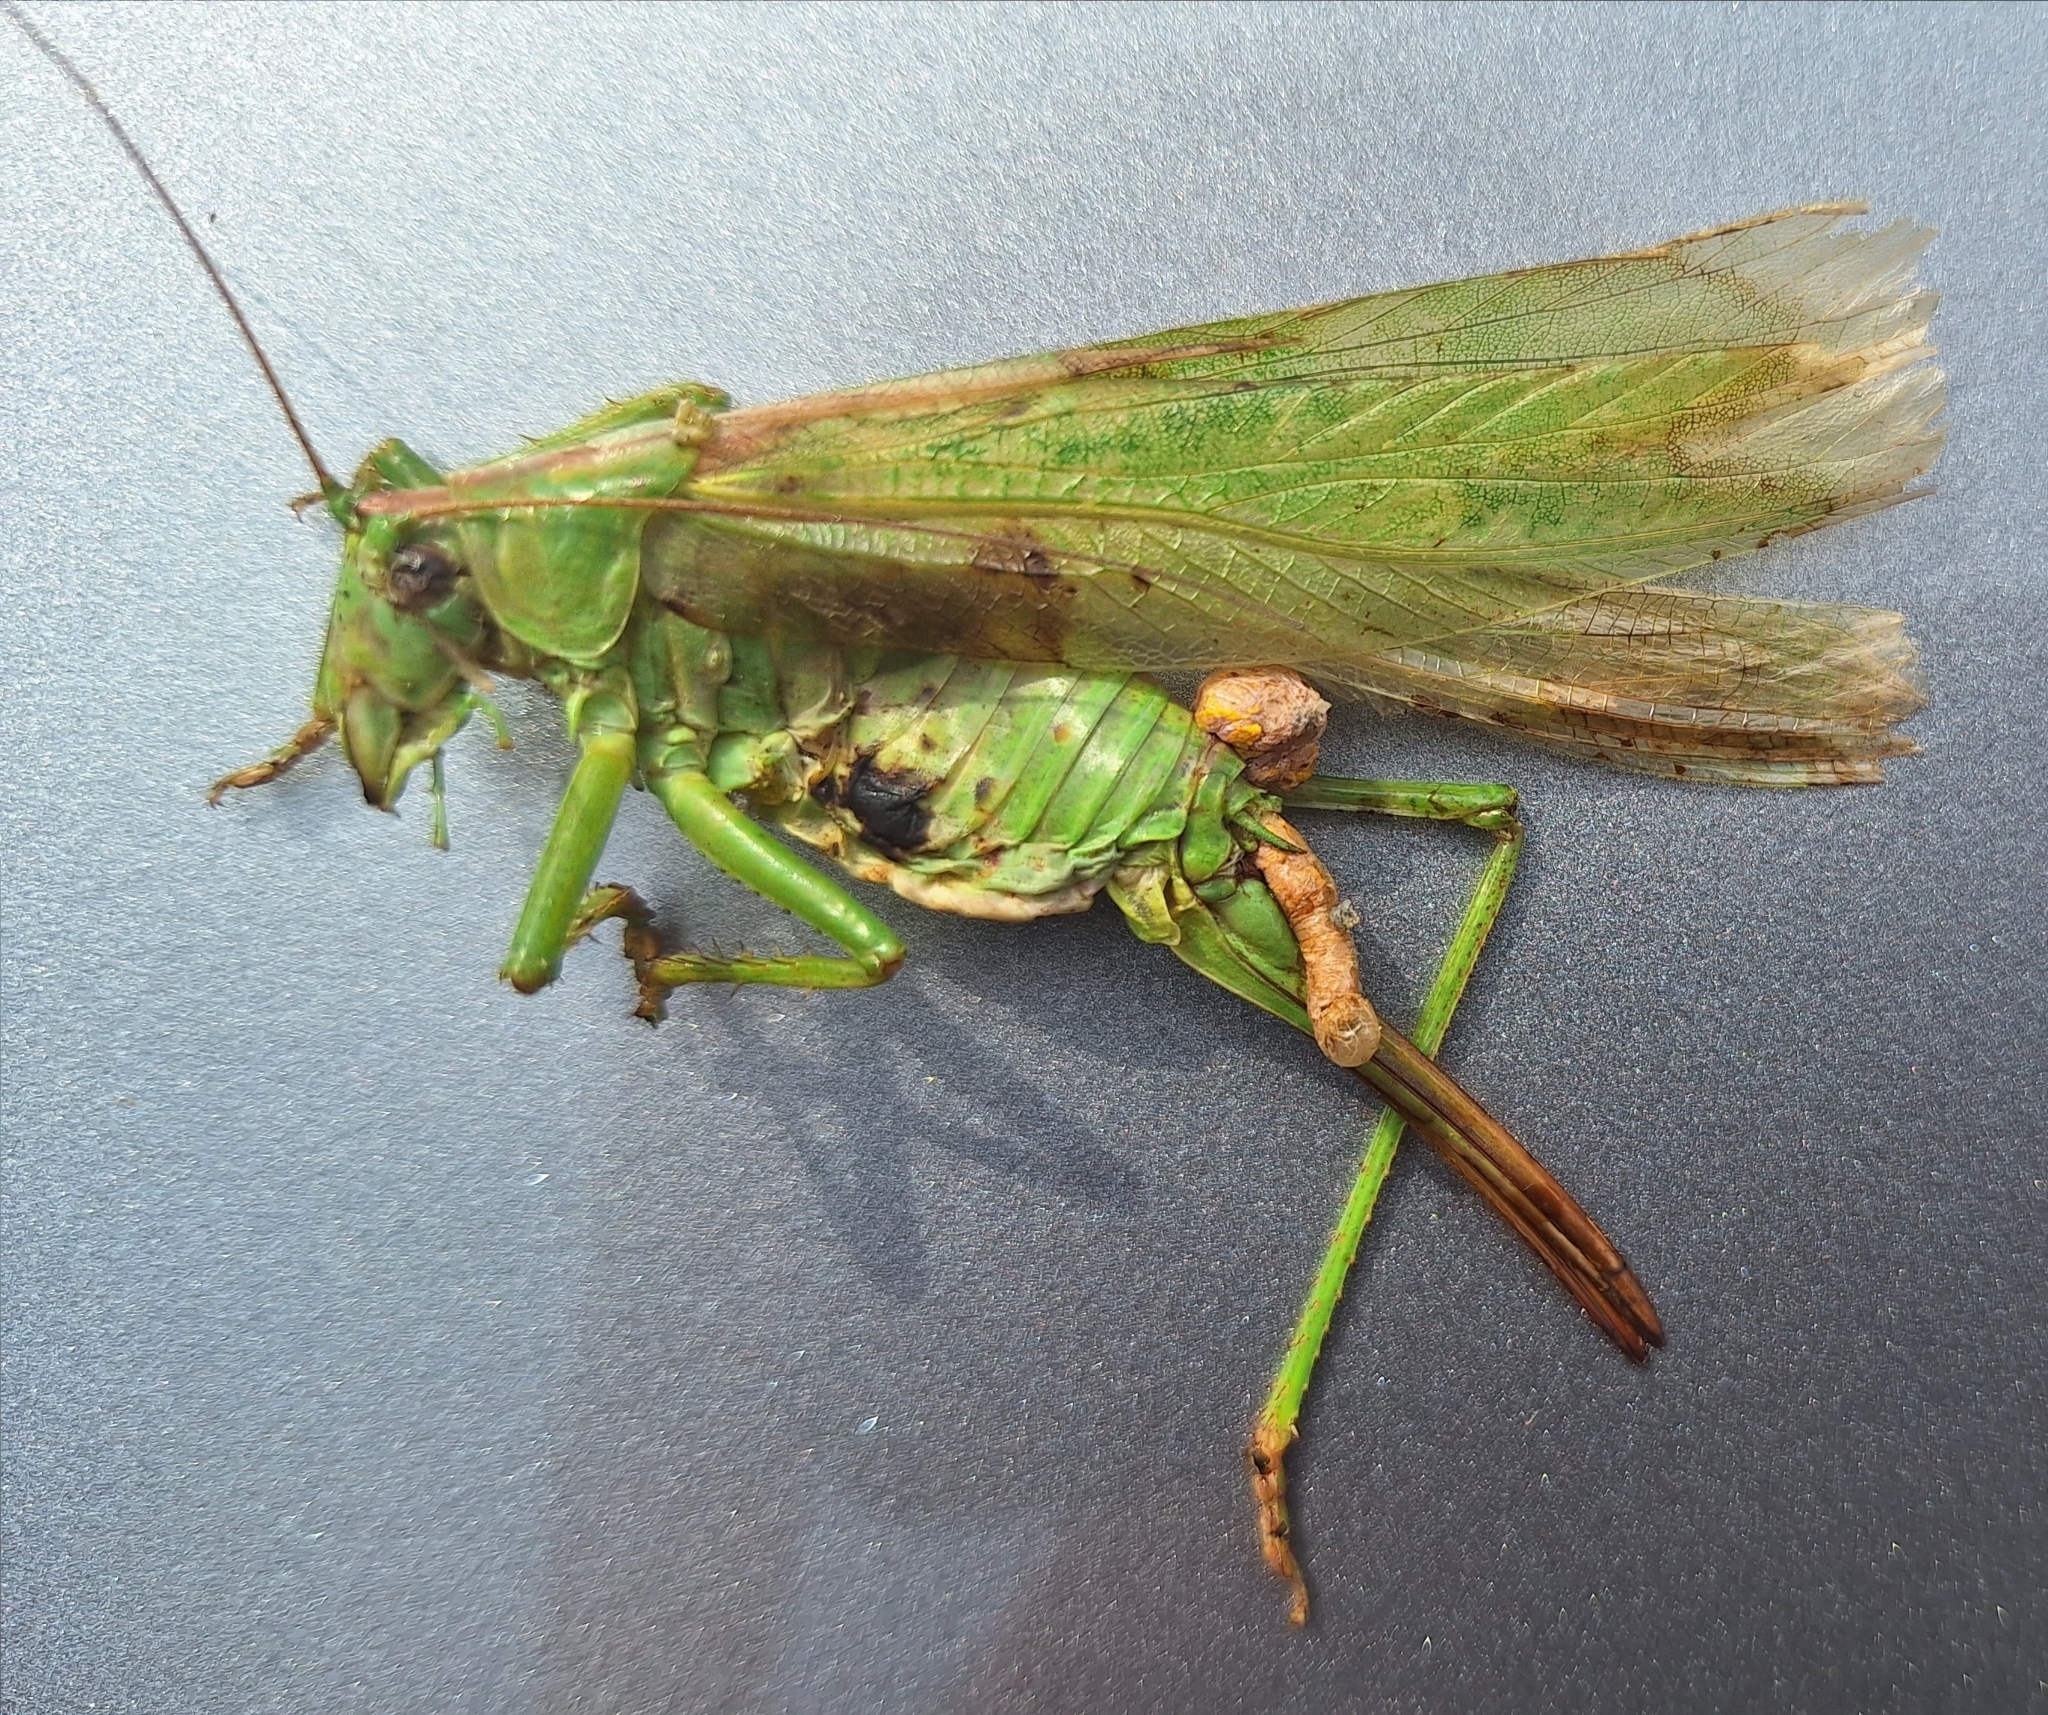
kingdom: Animalia
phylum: Arthropoda
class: Insecta
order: Orthoptera
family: Tettigoniidae
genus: Tettigonia
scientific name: Tettigonia viridissima
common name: Great green bush-cricket
